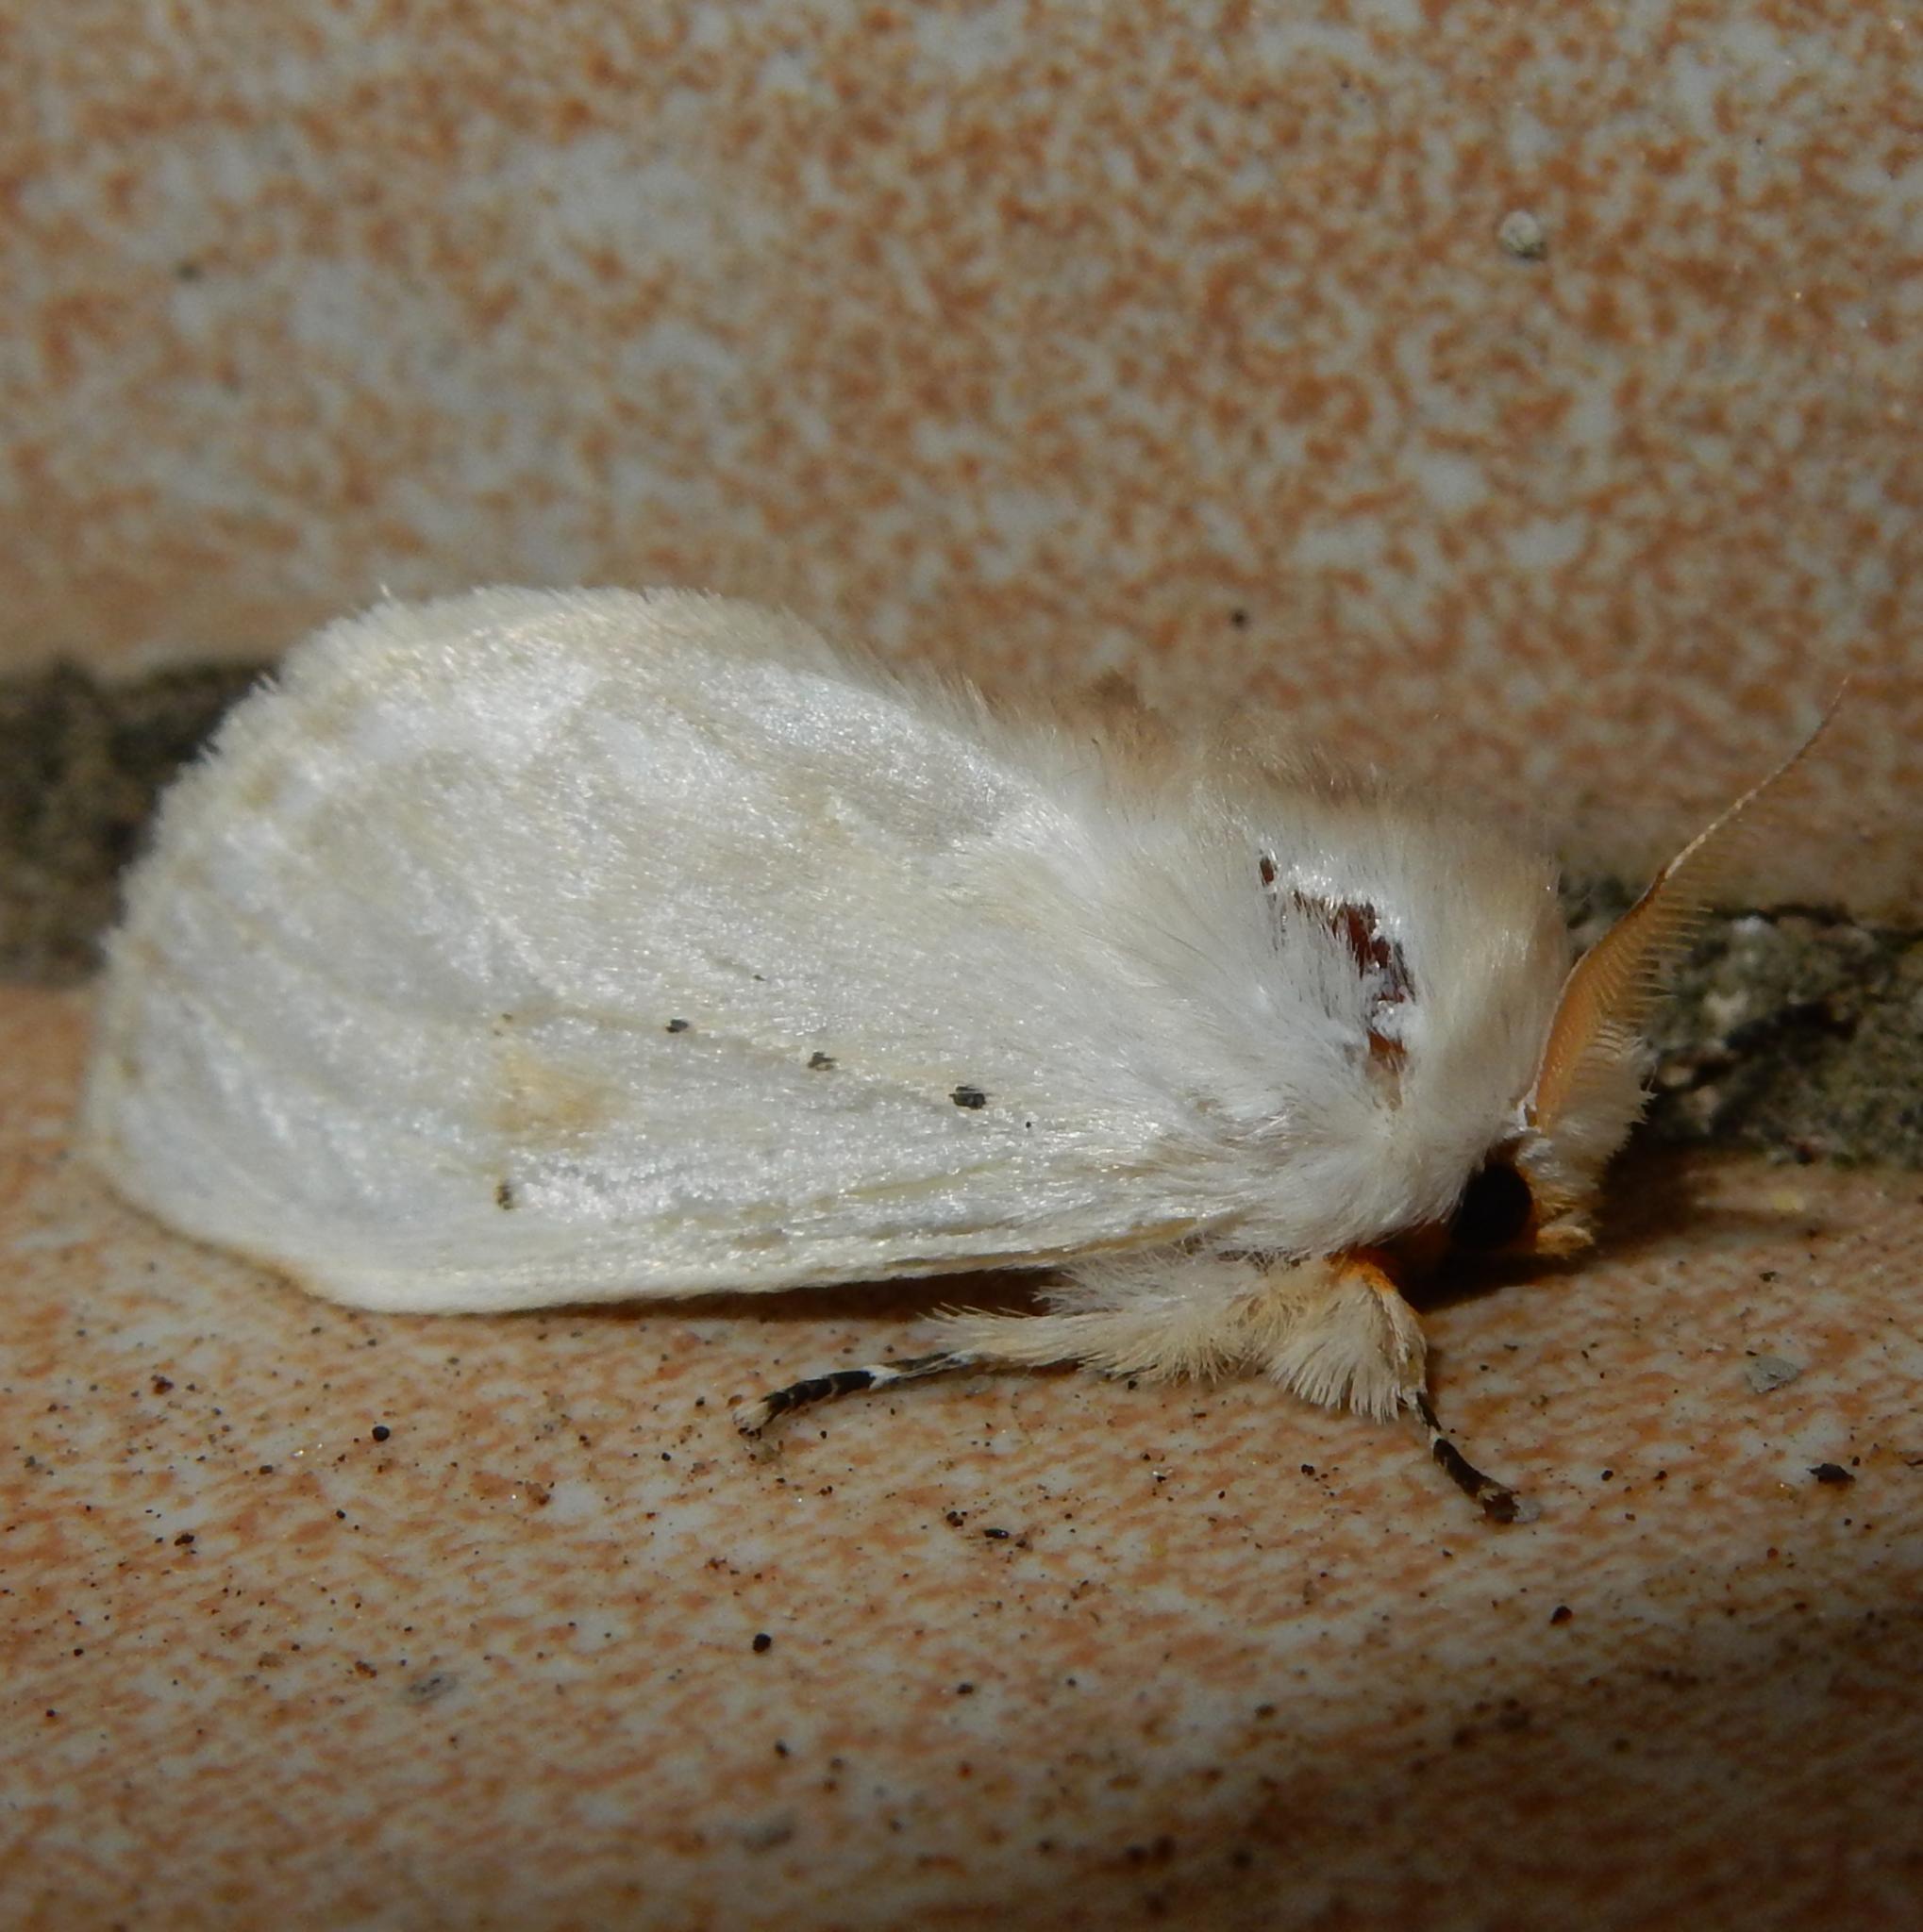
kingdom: Animalia
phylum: Arthropoda
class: Insecta
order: Lepidoptera
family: Erebidae
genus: Naroma
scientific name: Naroma varipes
